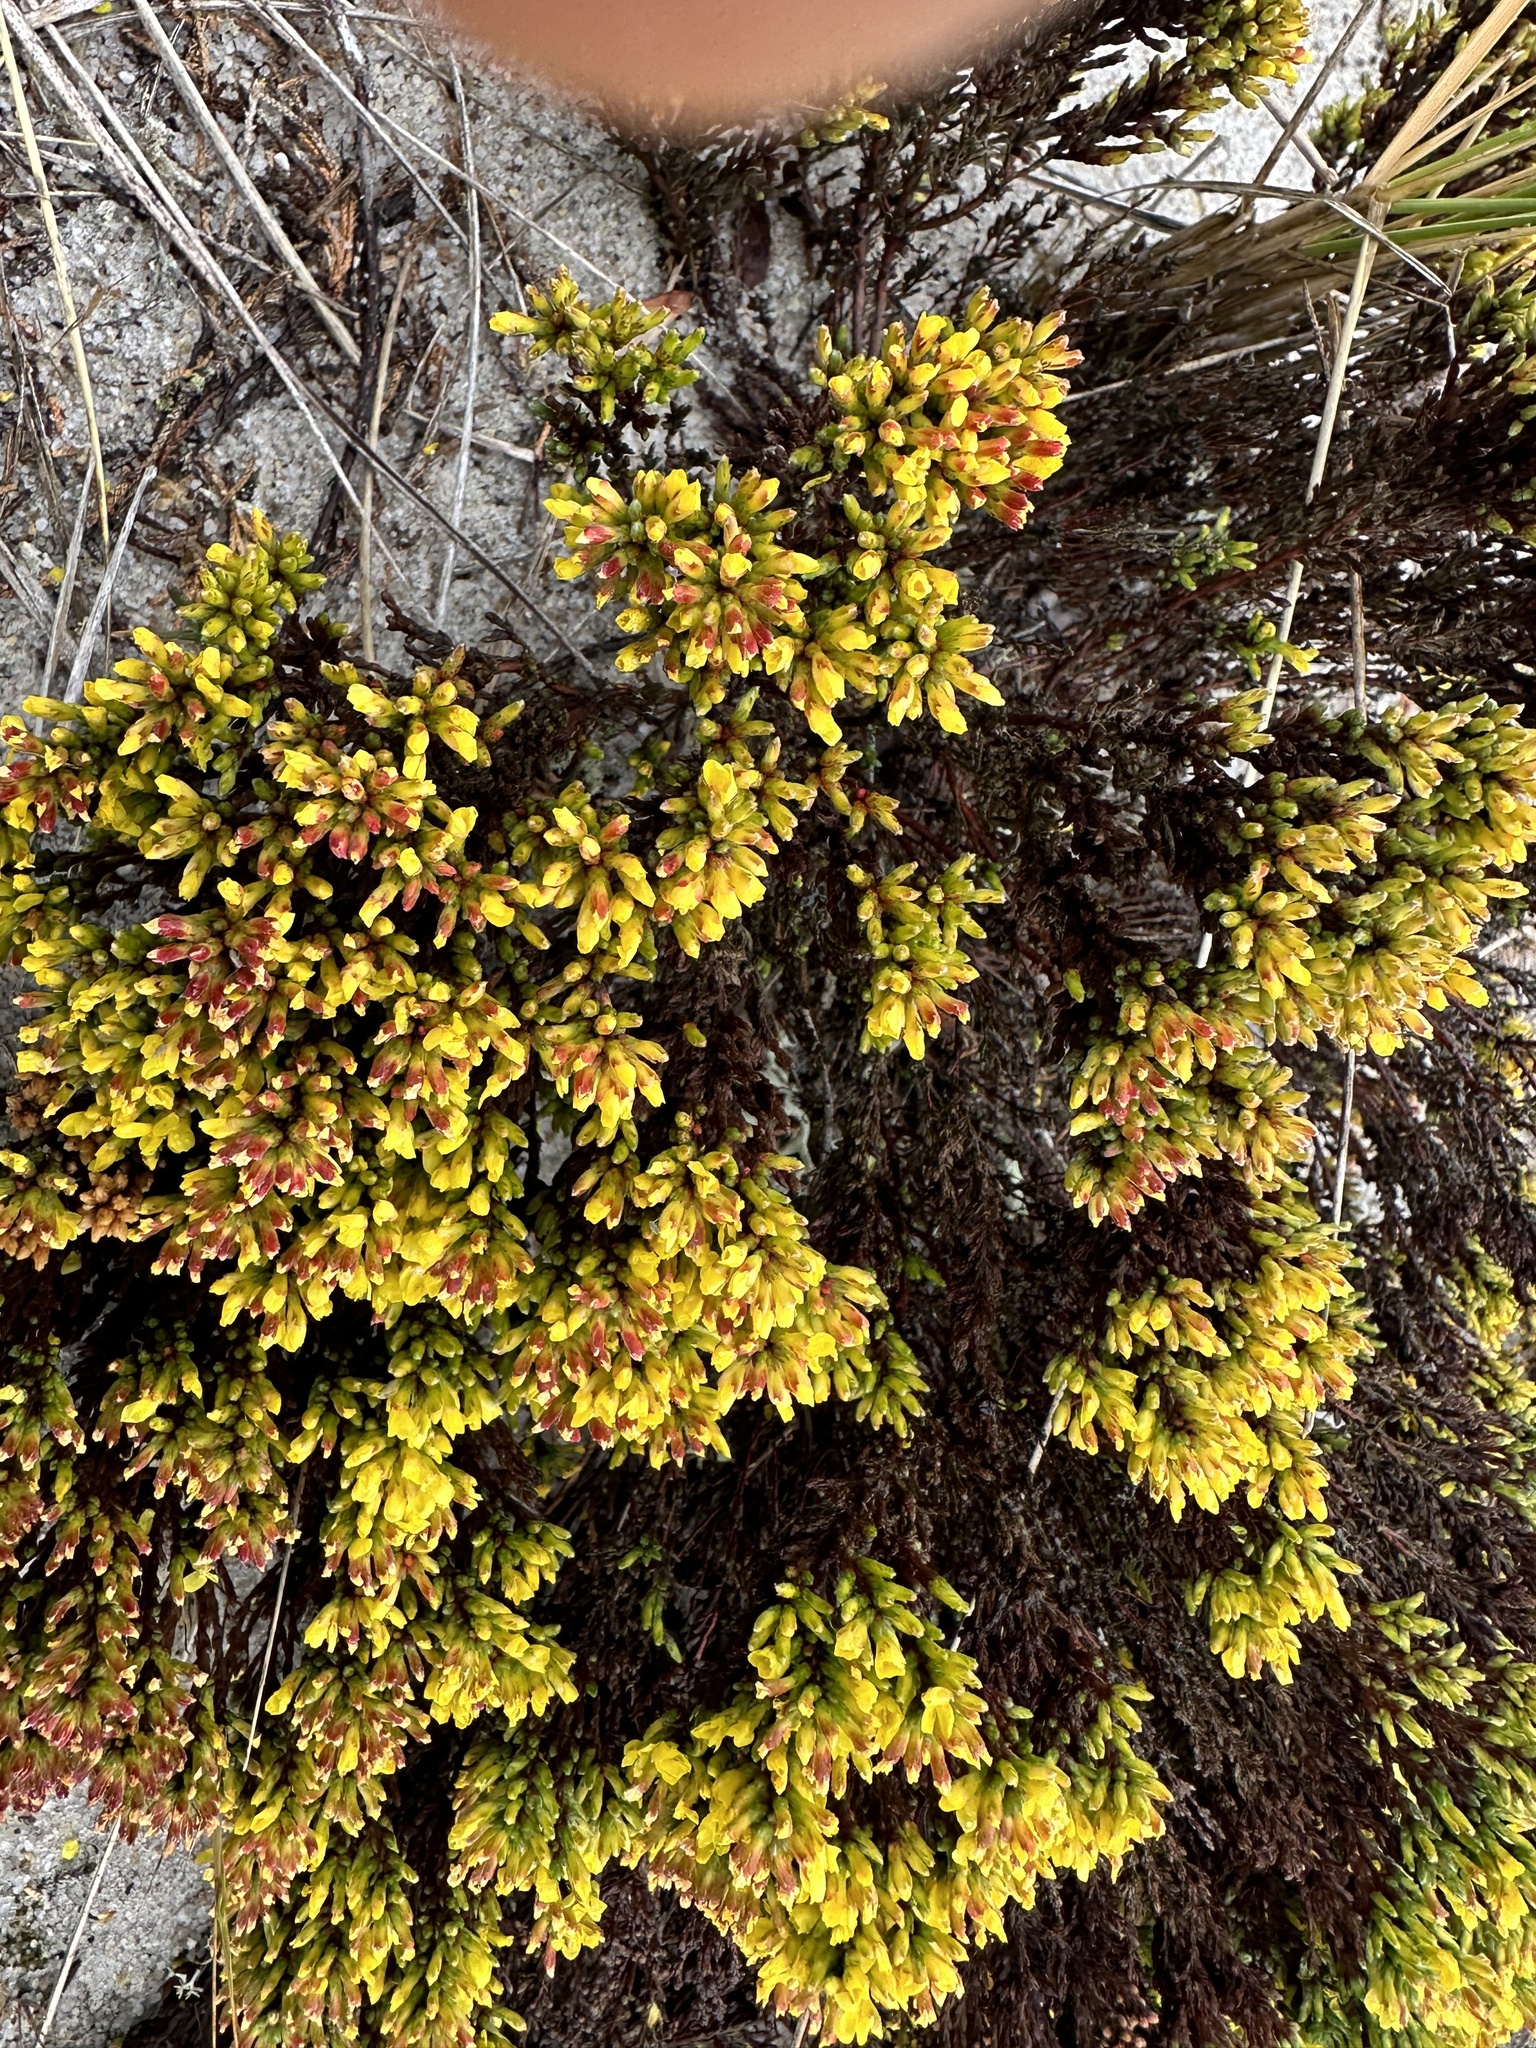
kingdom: Plantae
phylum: Tracheophyta
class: Magnoliopsida
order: Malvales
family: Cistaceae
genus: Hudsonia
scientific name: Hudsonia tomentosa
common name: Beach-heath
